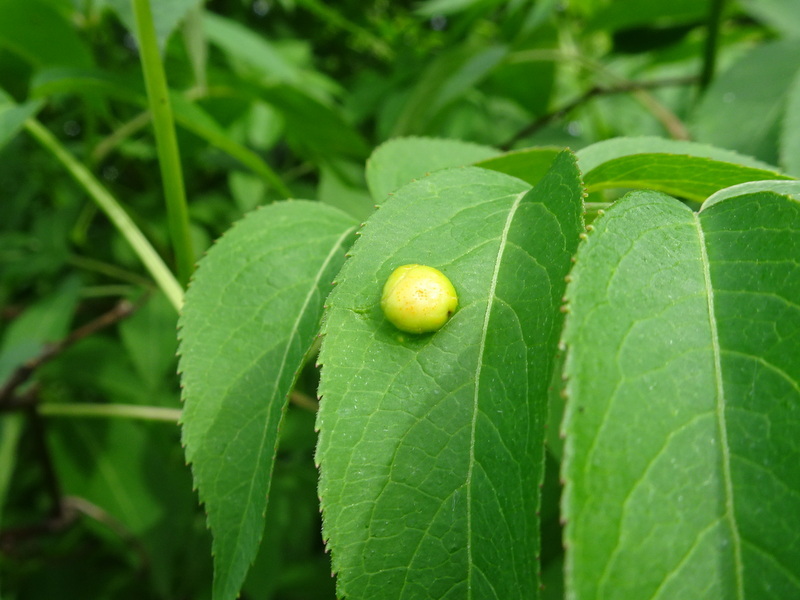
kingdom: Fungi
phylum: Basidiomycota
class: Pucciniomycetes
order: Pucciniales
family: Pucciniaceae
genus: Puccinia
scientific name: Puccinia
